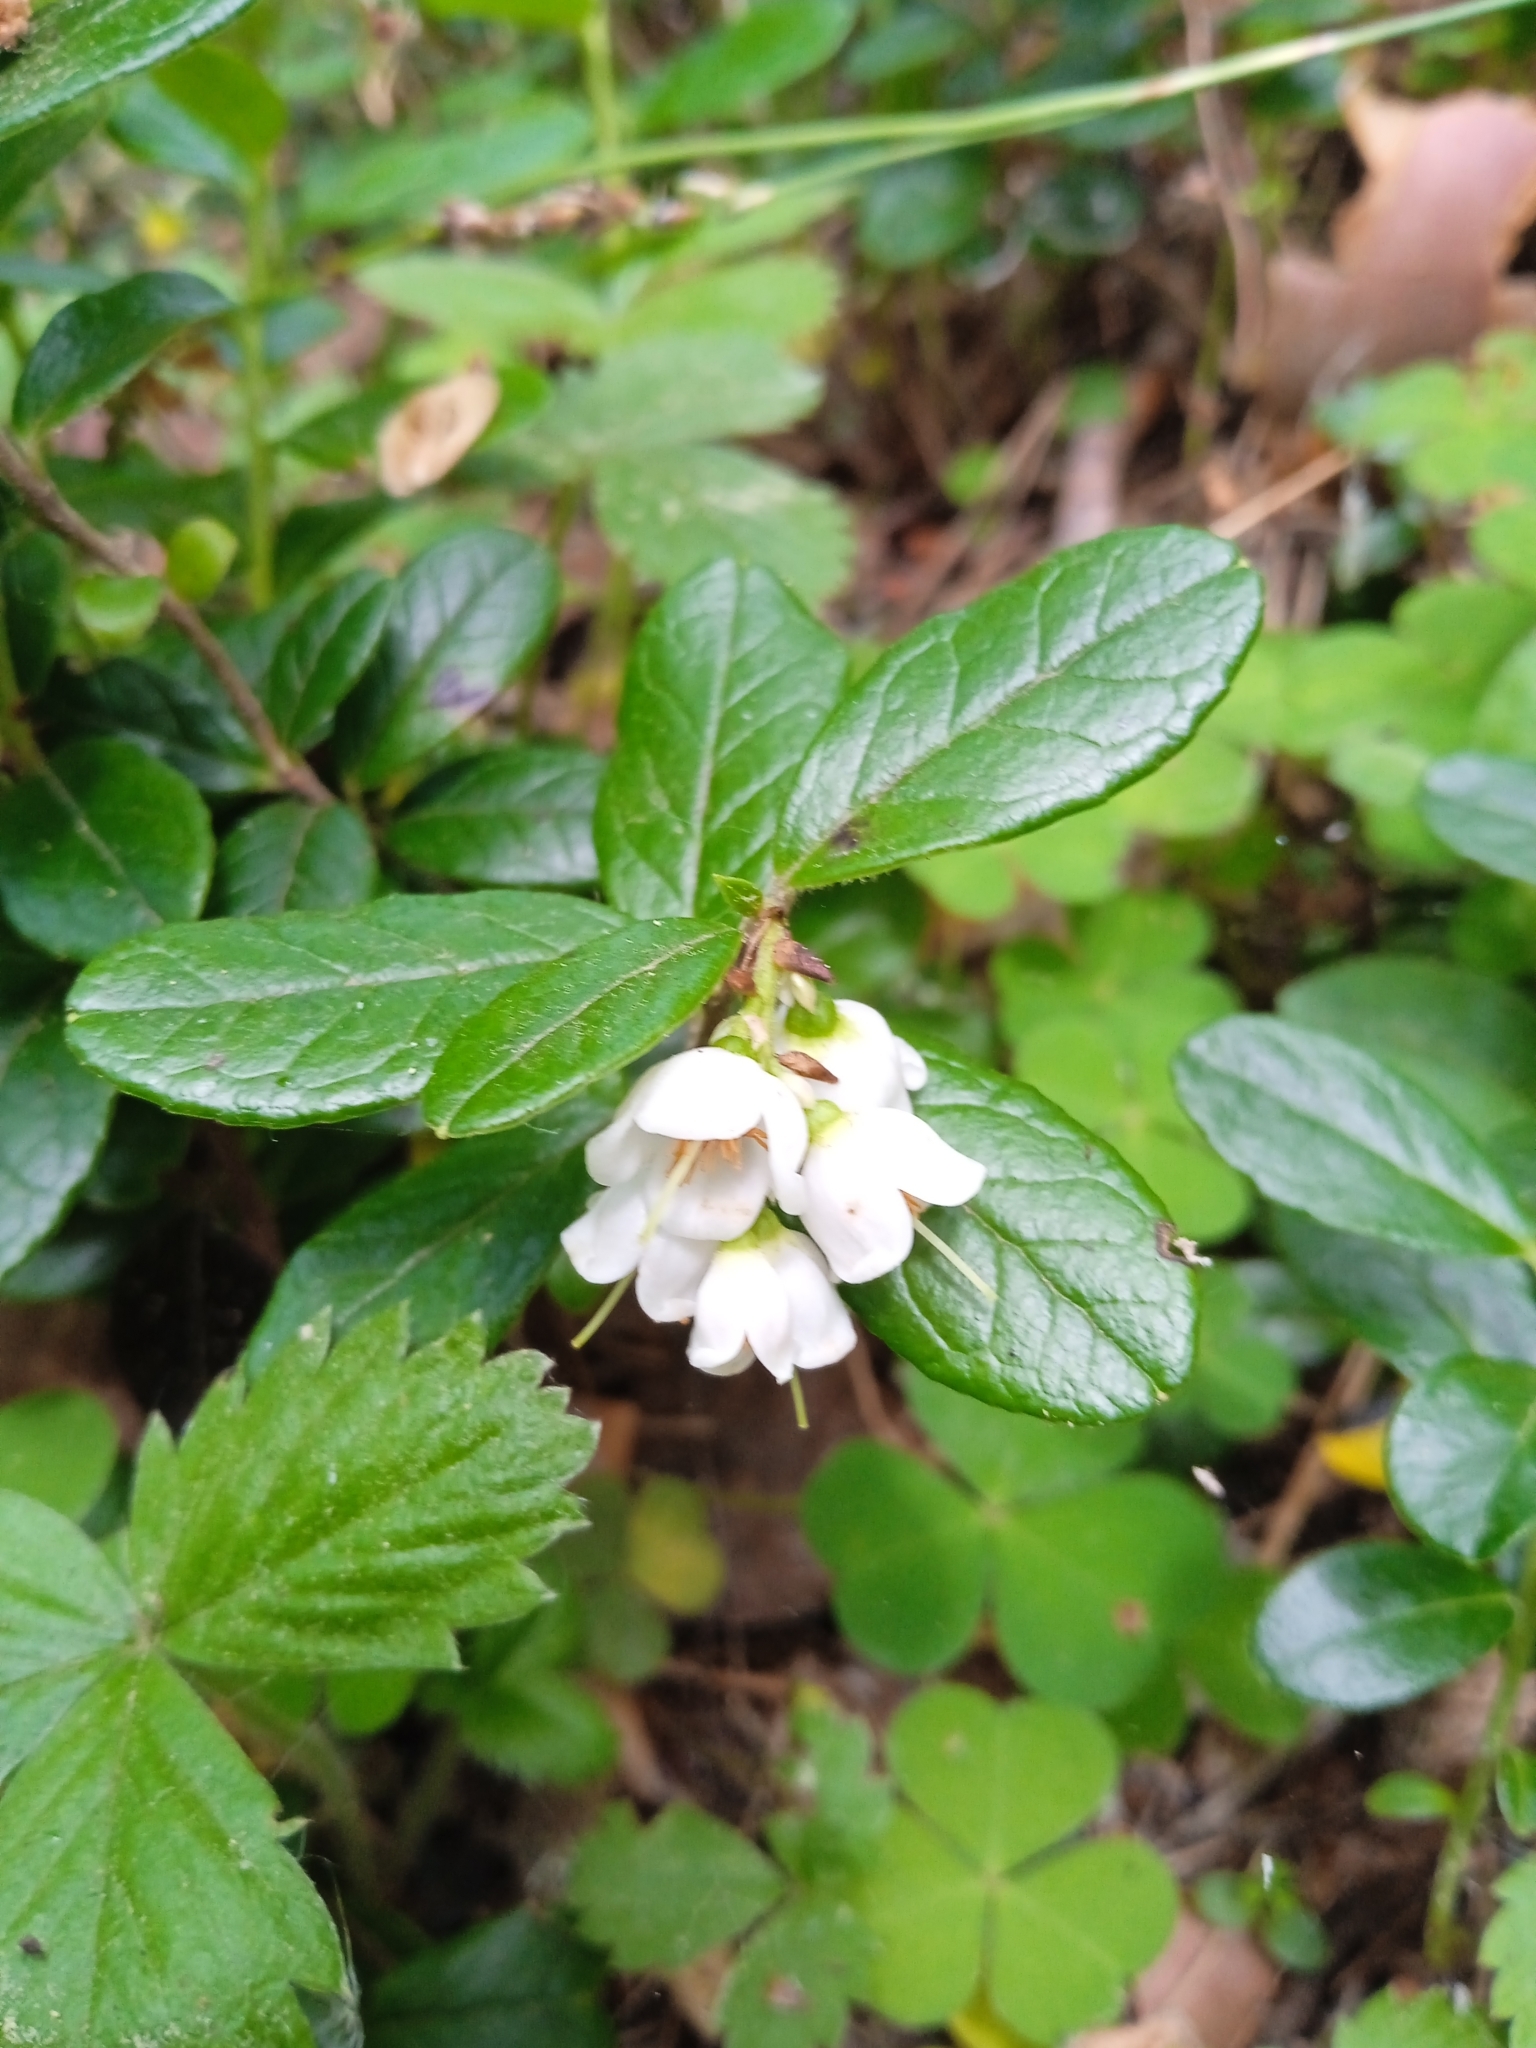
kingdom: Plantae
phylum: Tracheophyta
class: Magnoliopsida
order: Ericales
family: Ericaceae
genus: Vaccinium
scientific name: Vaccinium vitis-idaea
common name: Cowberry
